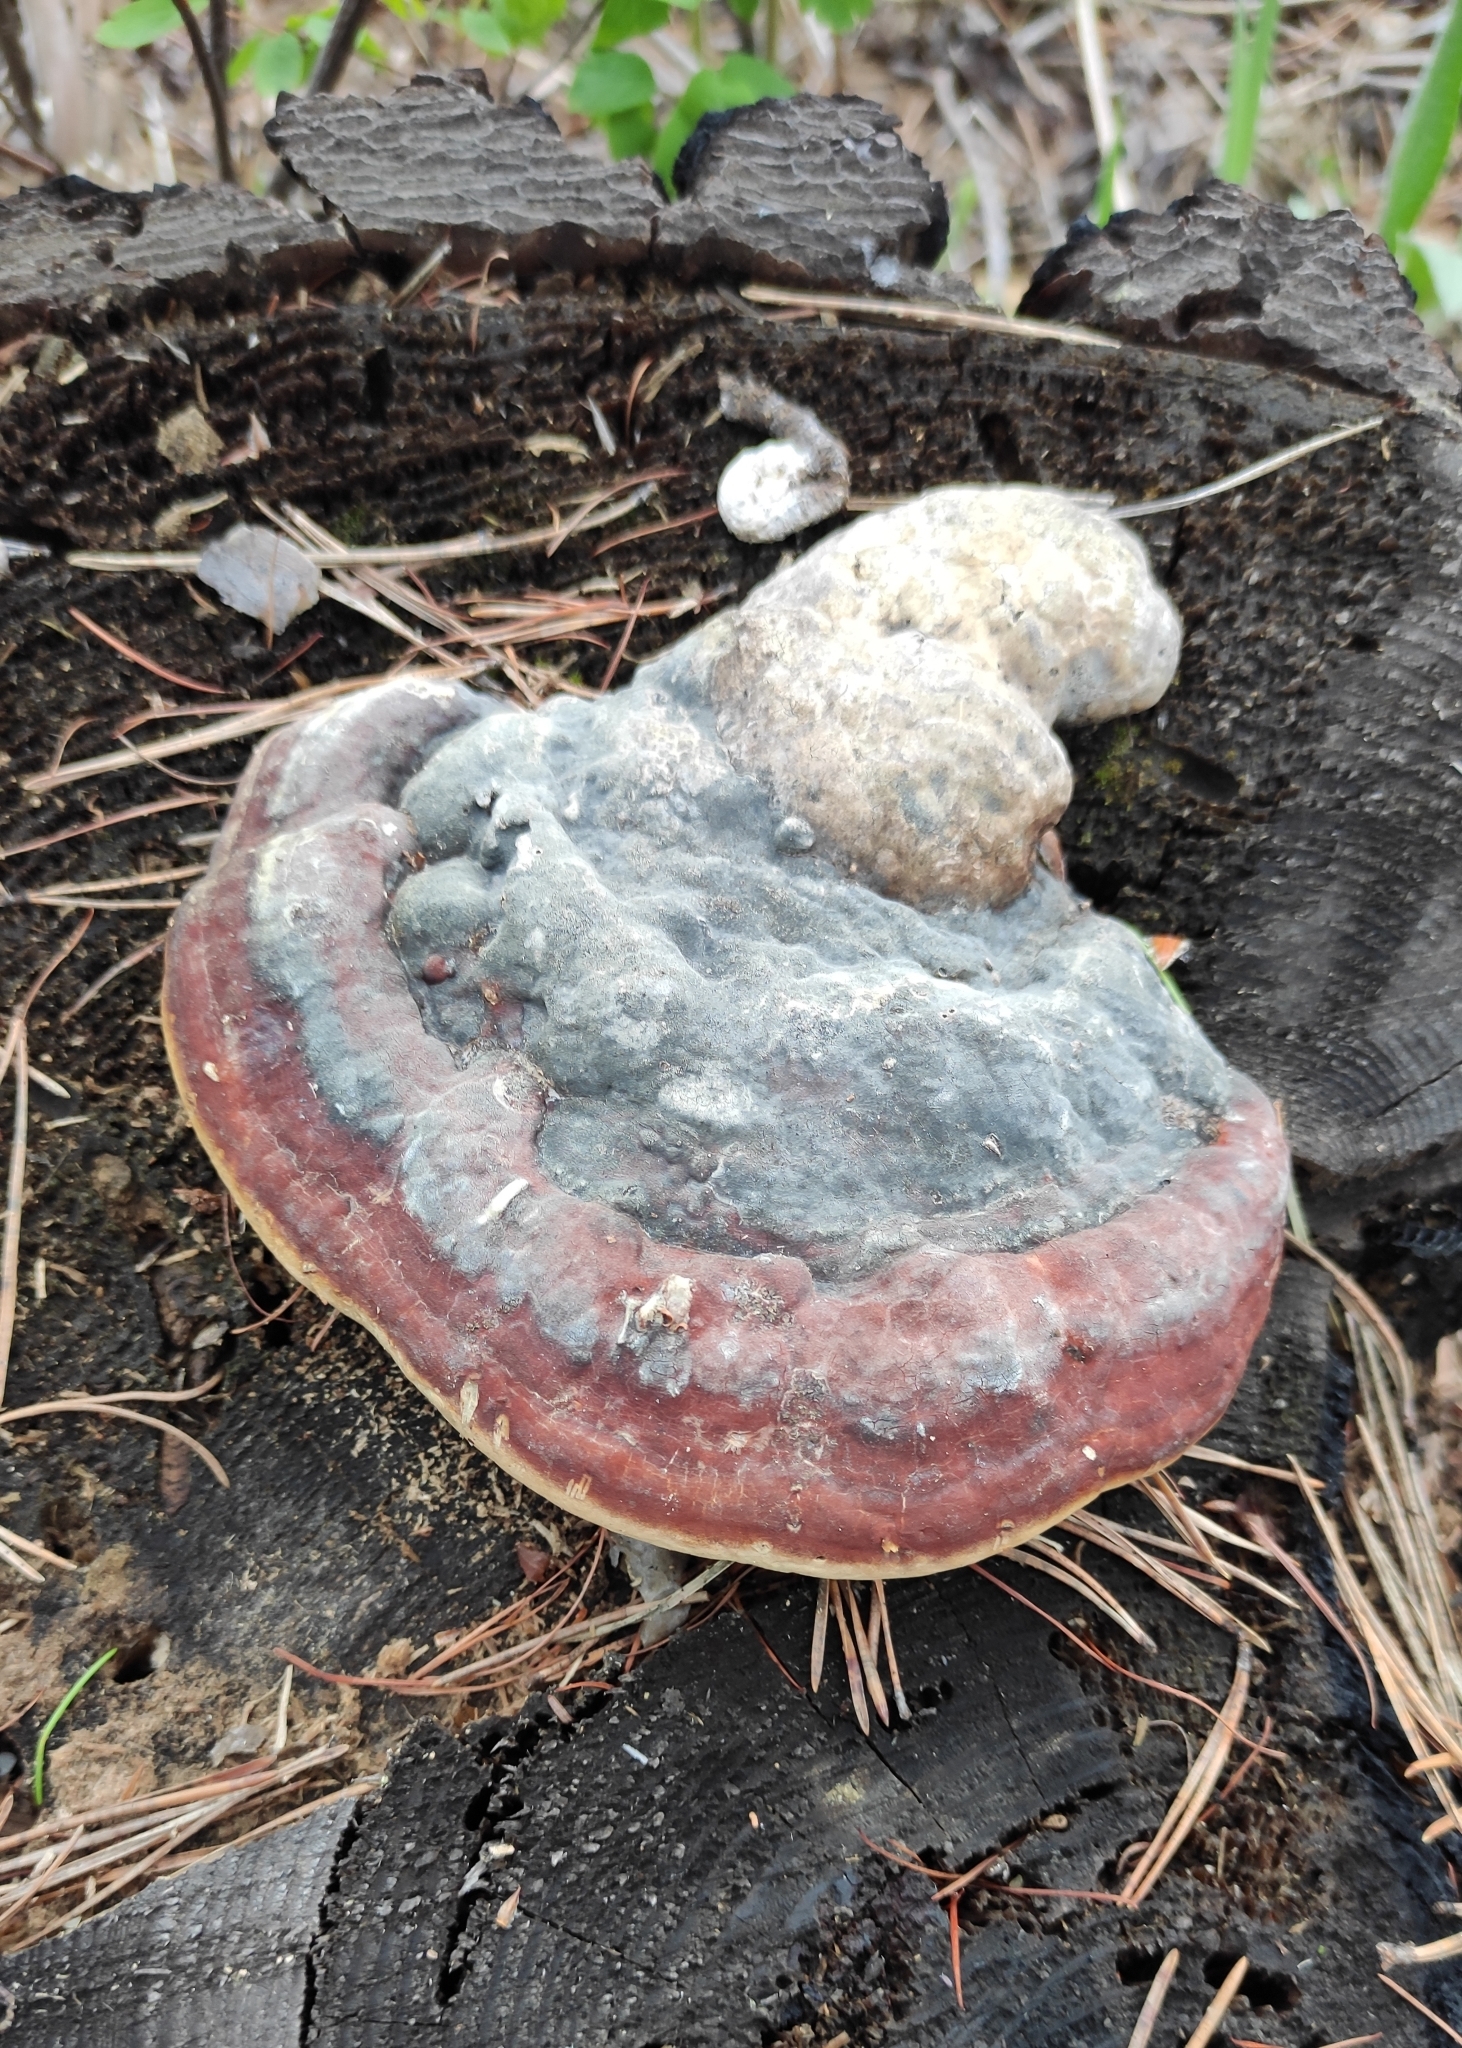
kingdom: Fungi
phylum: Basidiomycota
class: Agaricomycetes
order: Polyporales
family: Fomitopsidaceae
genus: Fomitopsis
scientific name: Fomitopsis pinicola
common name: Red-belted bracket
